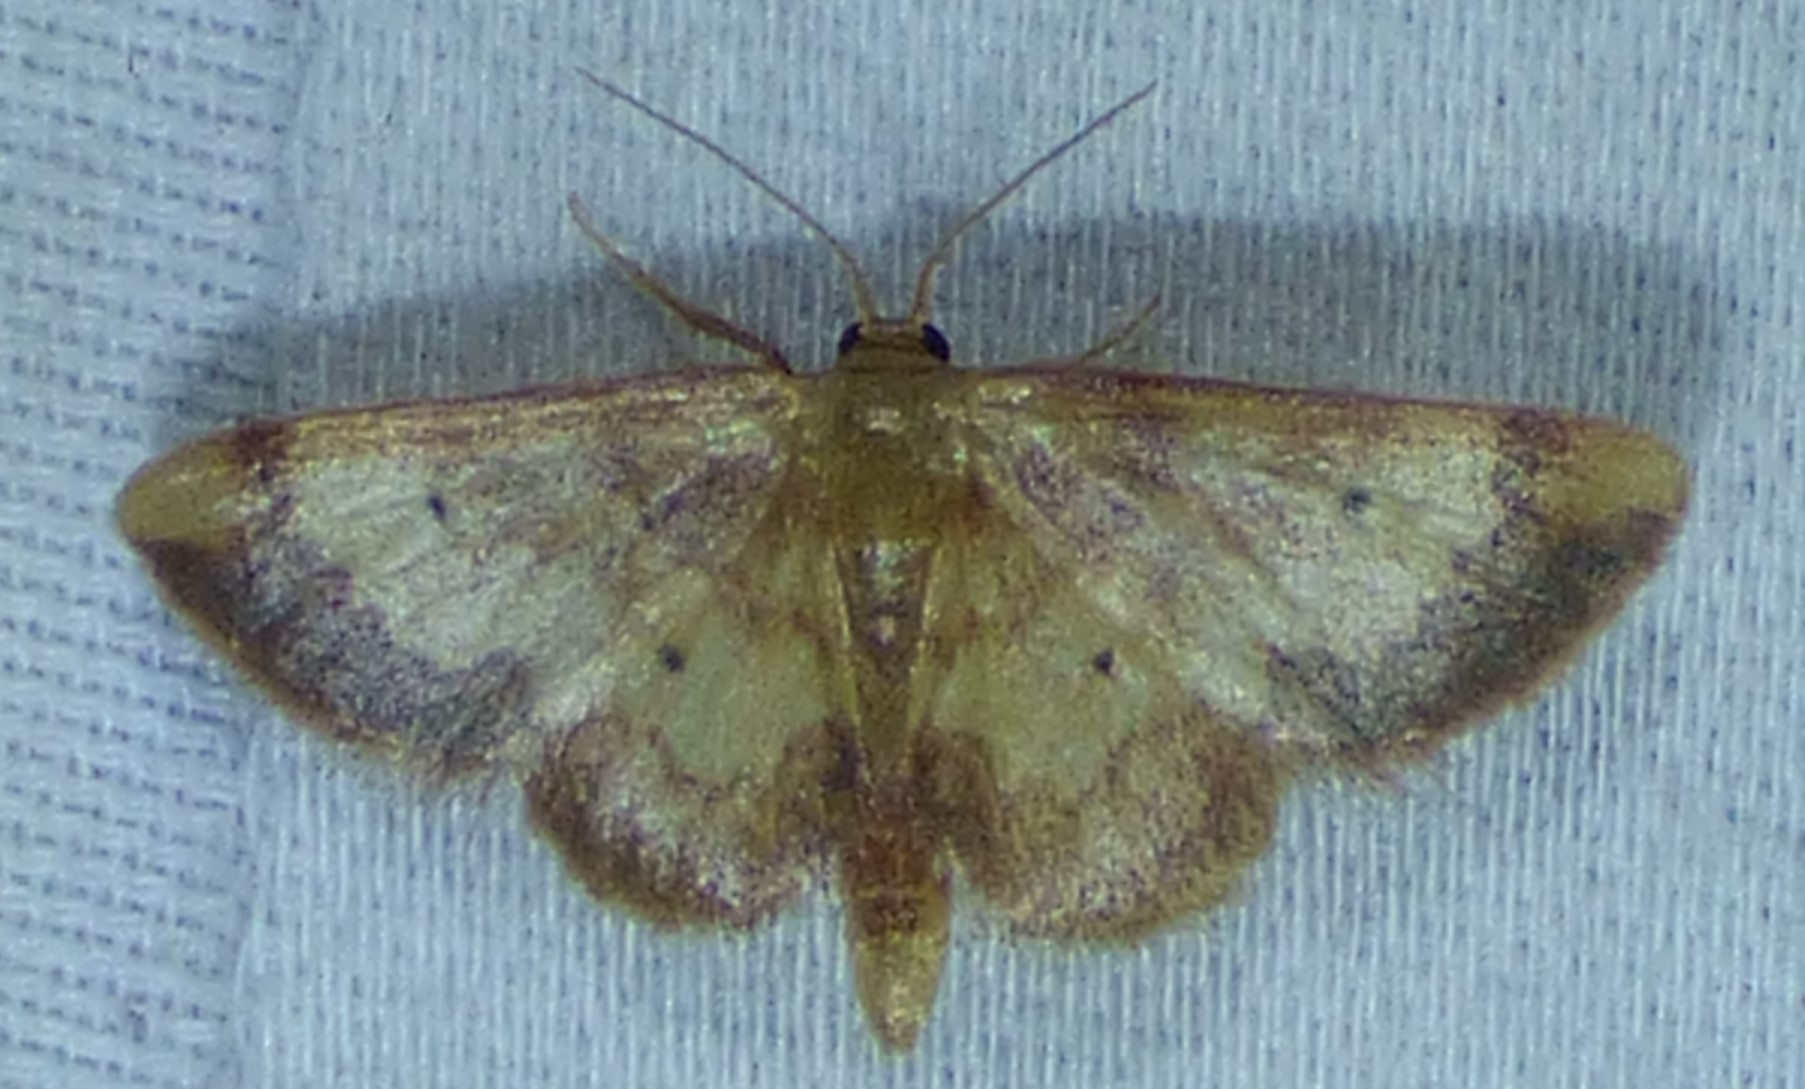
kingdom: Animalia
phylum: Arthropoda
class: Insecta
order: Lepidoptera
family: Geometridae
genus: Idaea
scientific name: Idaea demissaria
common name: Red-bordered wave
